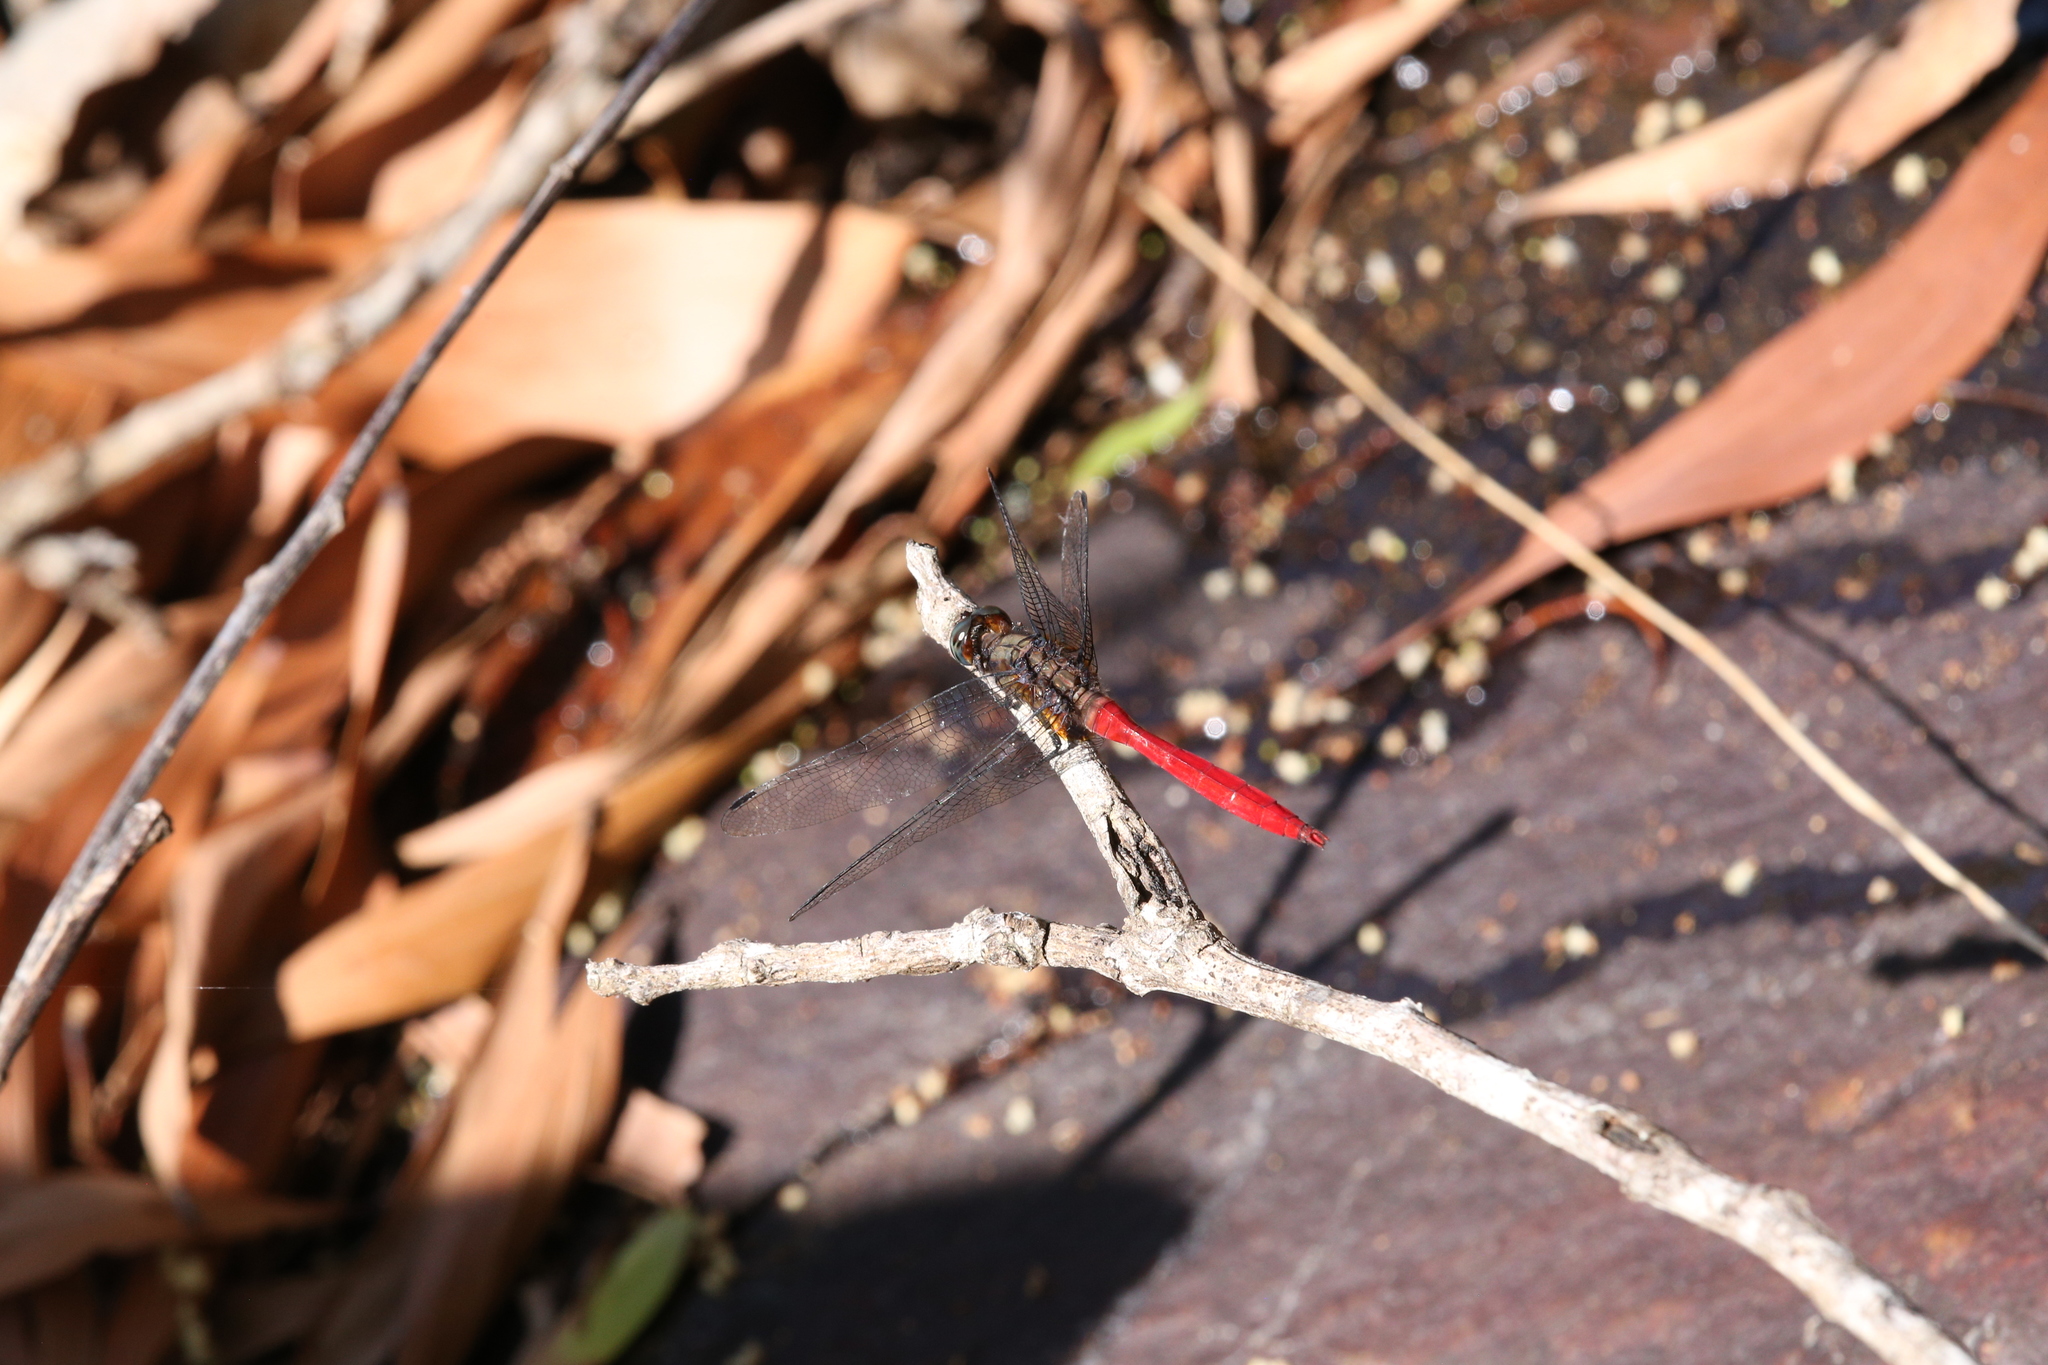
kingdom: Animalia
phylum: Arthropoda
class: Insecta
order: Odonata
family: Libellulidae
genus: Orthetrum
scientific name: Orthetrum villosovittatum
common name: Firery skimmer
